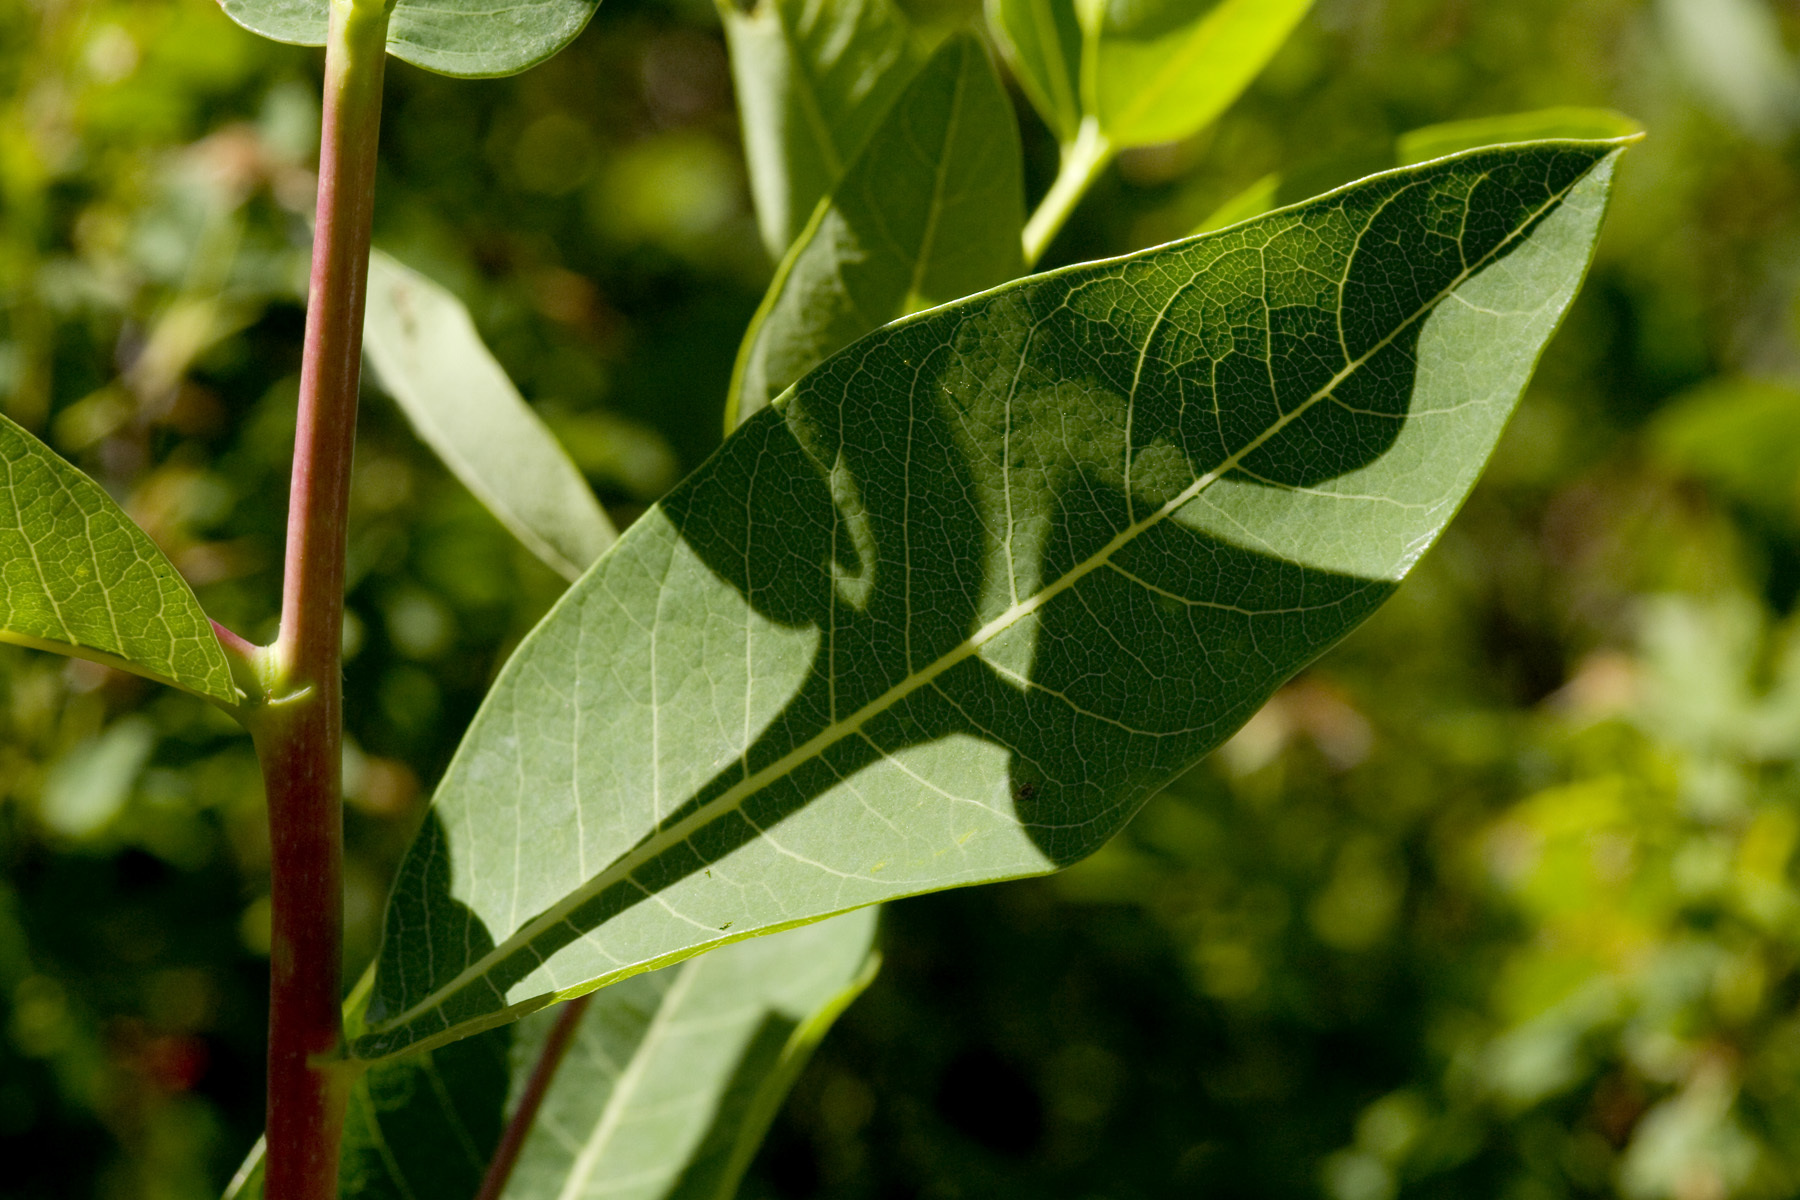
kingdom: Plantae
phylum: Tracheophyta
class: Magnoliopsida
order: Gentianales
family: Apocynaceae
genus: Apocynum
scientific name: Apocynum cannabinum
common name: Hemp dogbane
